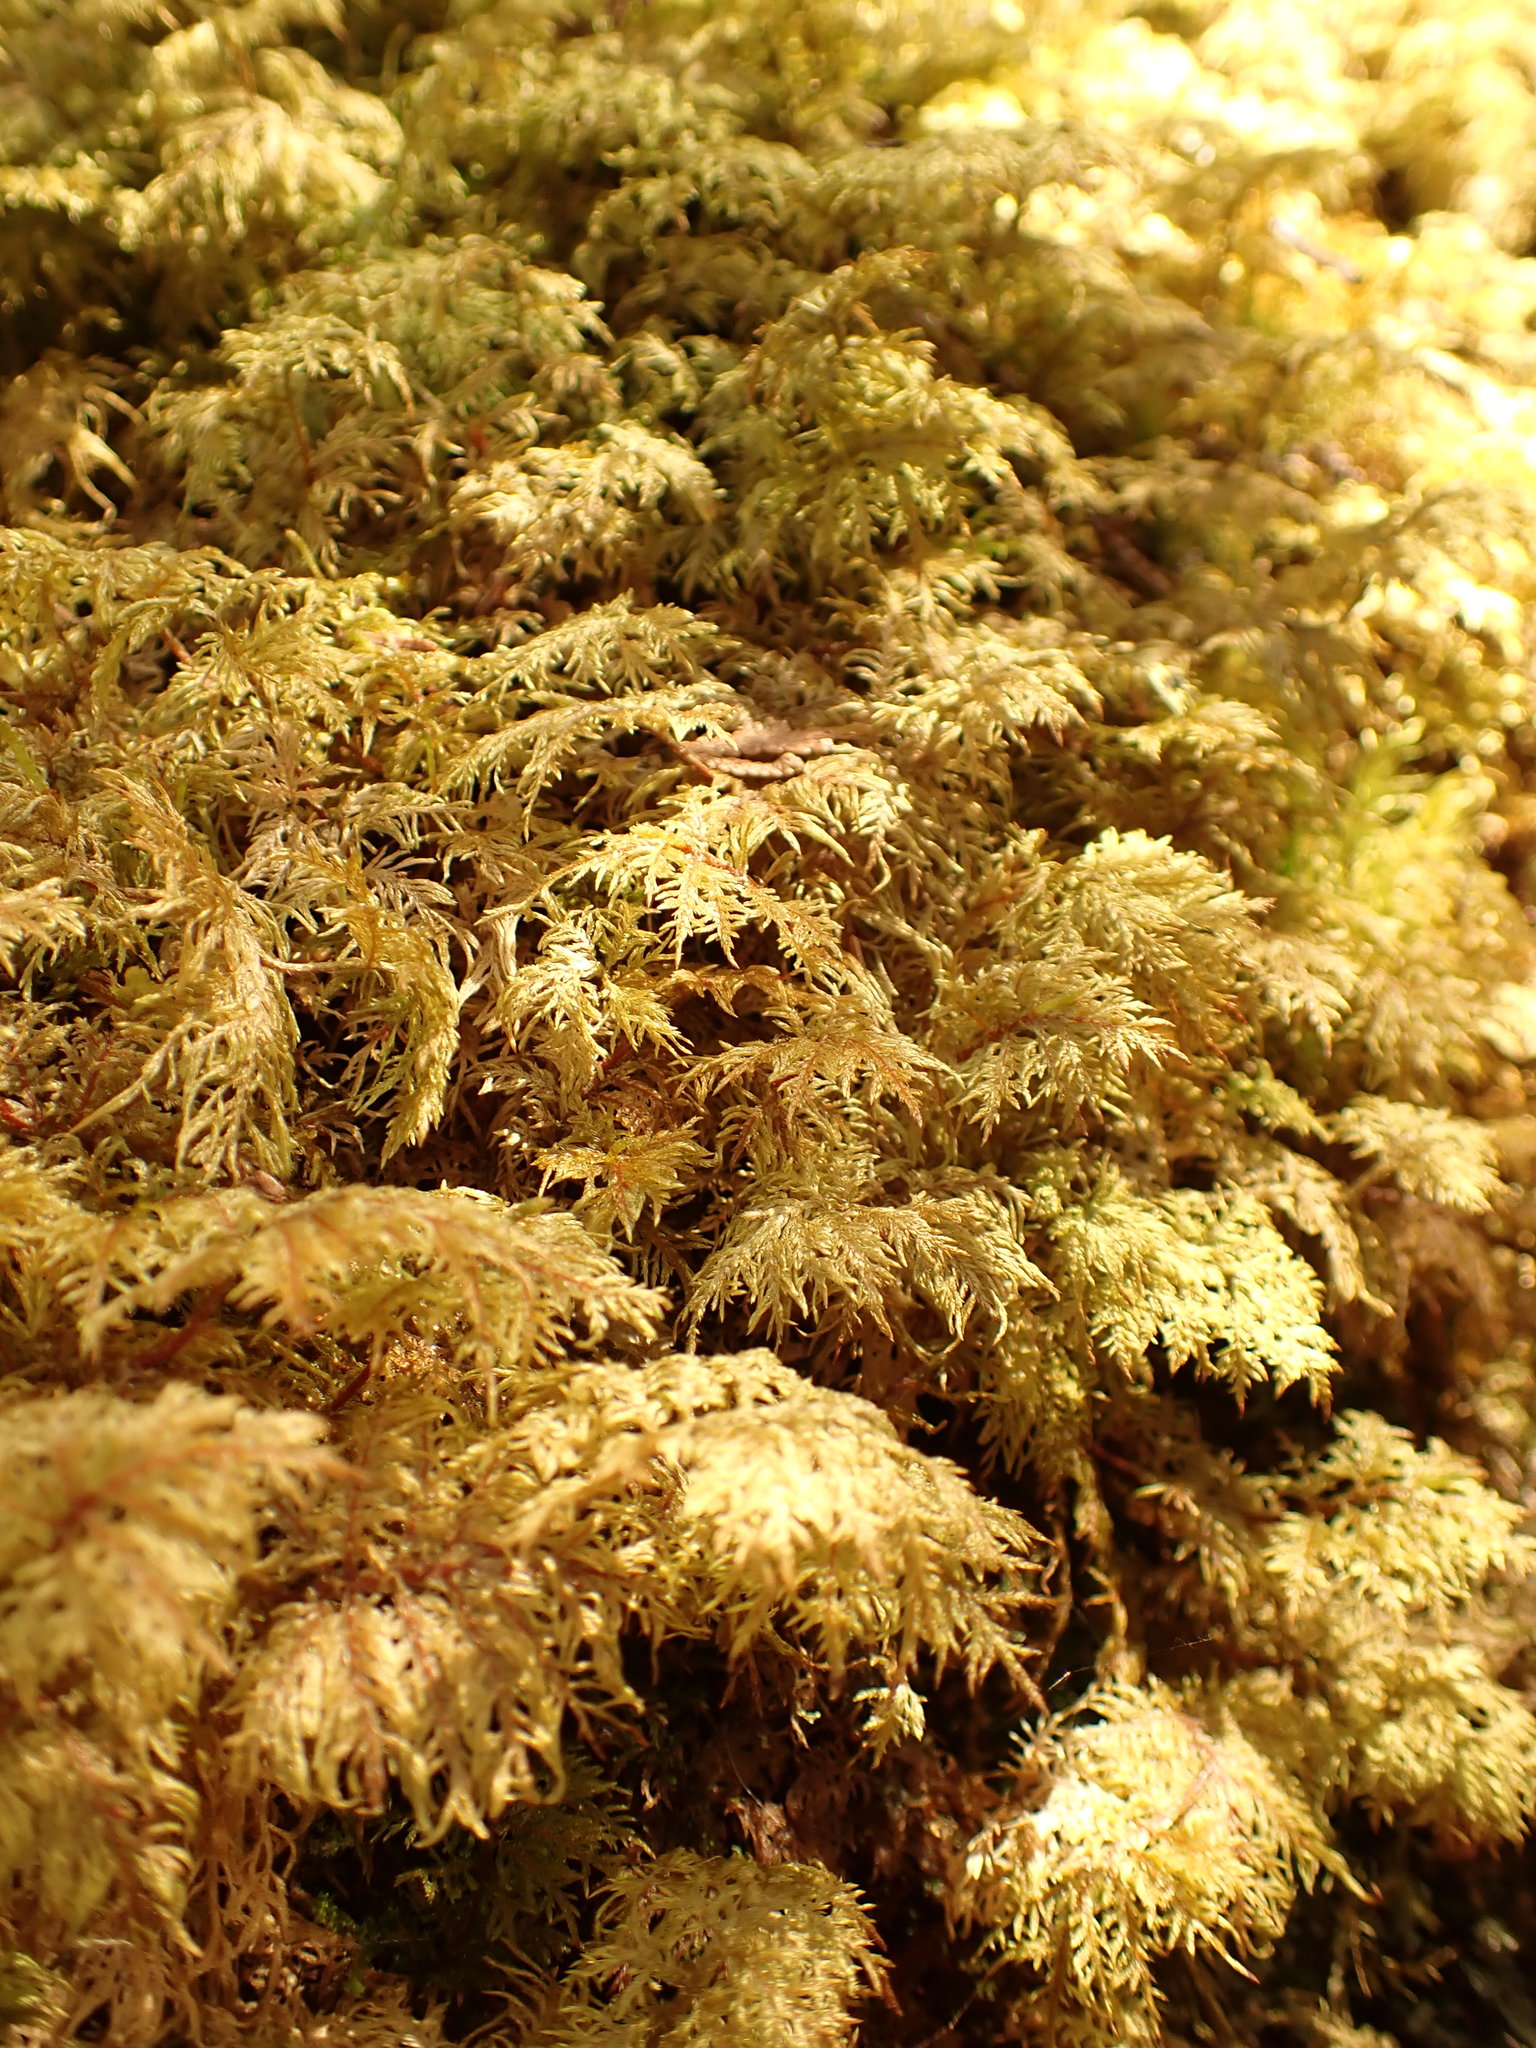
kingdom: Plantae
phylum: Bryophyta
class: Bryopsida
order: Hypnales
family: Hylocomiaceae
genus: Hylocomium
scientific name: Hylocomium splendens
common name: Stairstep moss
